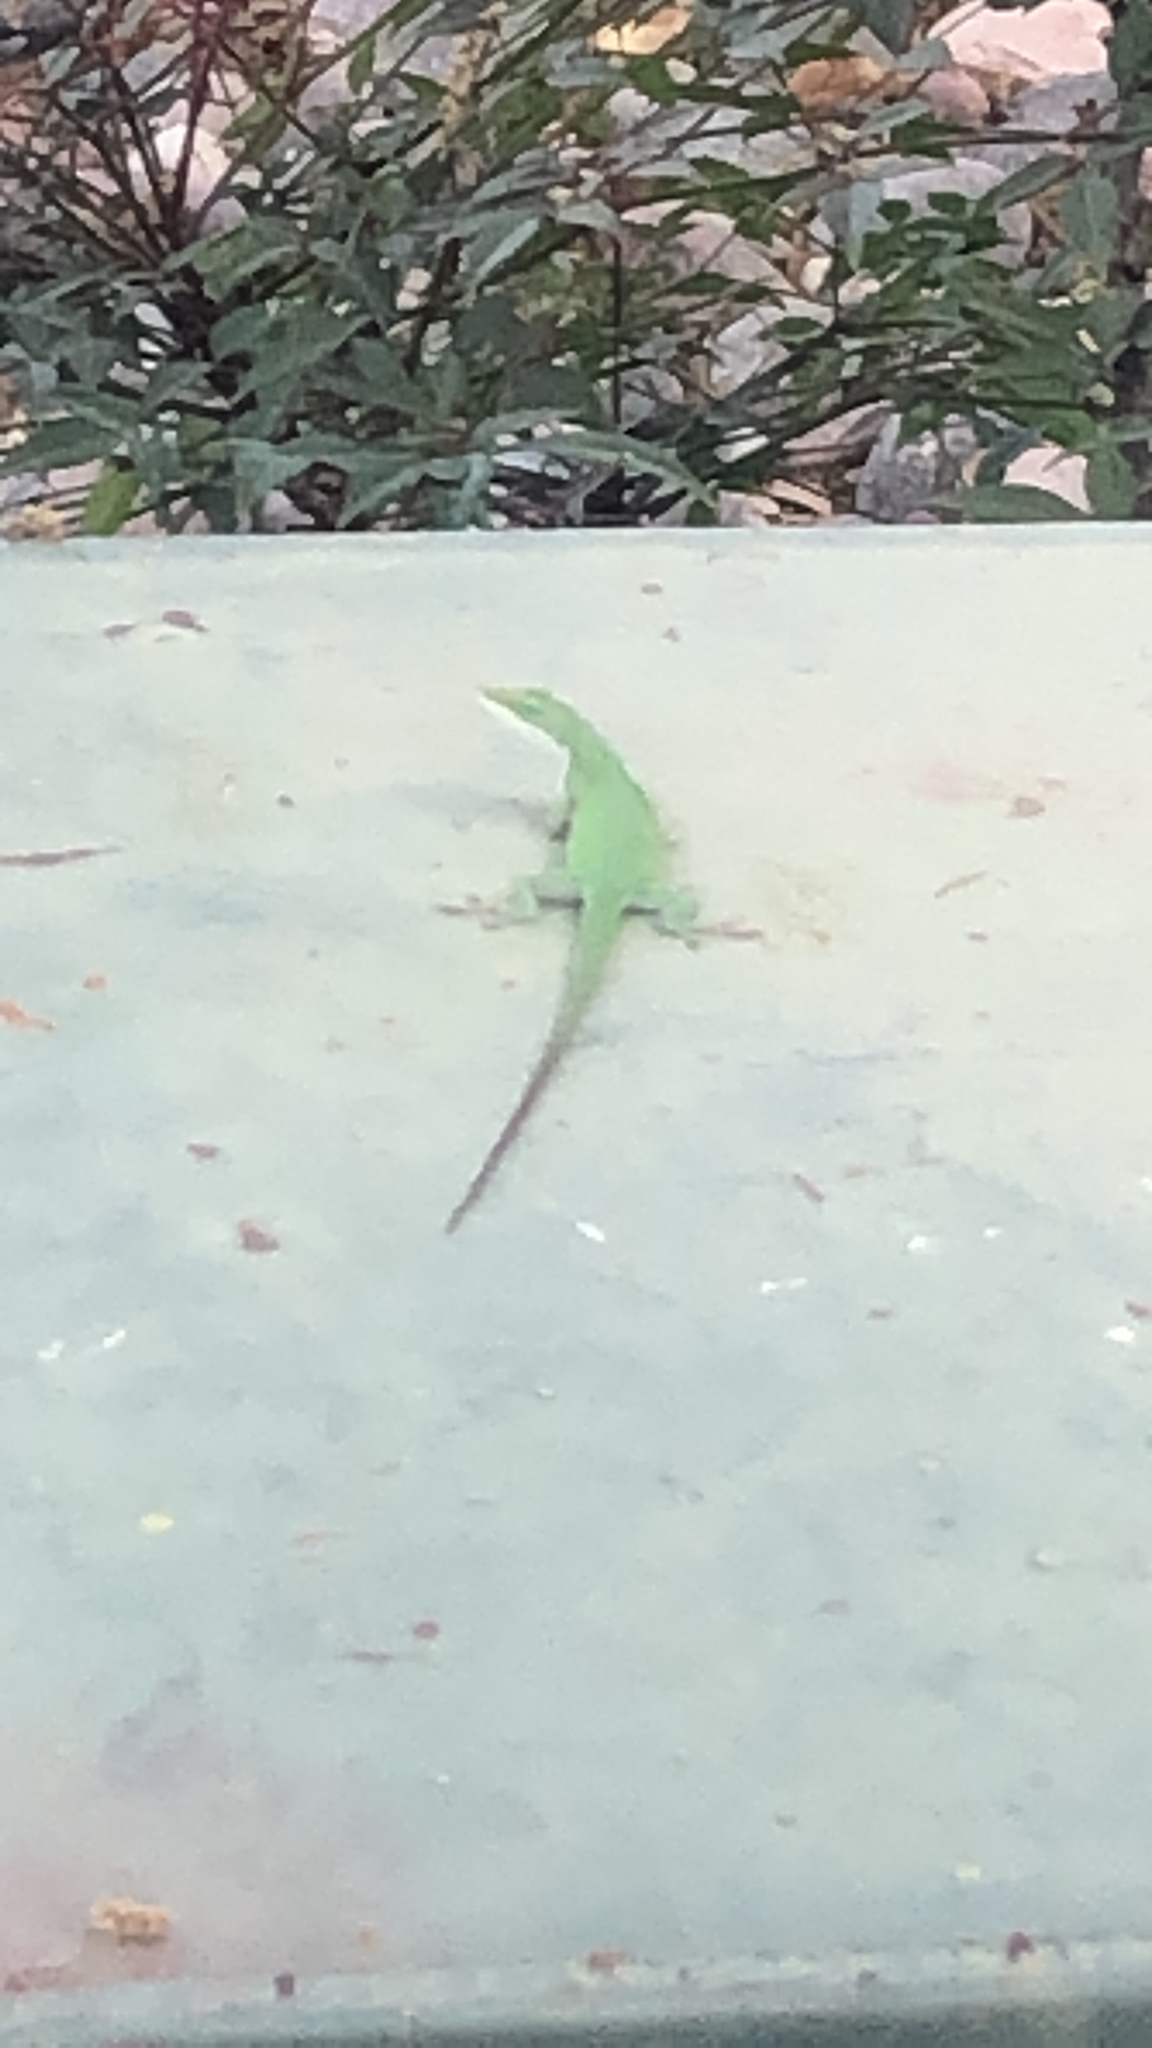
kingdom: Animalia
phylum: Chordata
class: Squamata
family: Dactyloidae
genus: Anolis
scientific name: Anolis carolinensis
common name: Green anole
